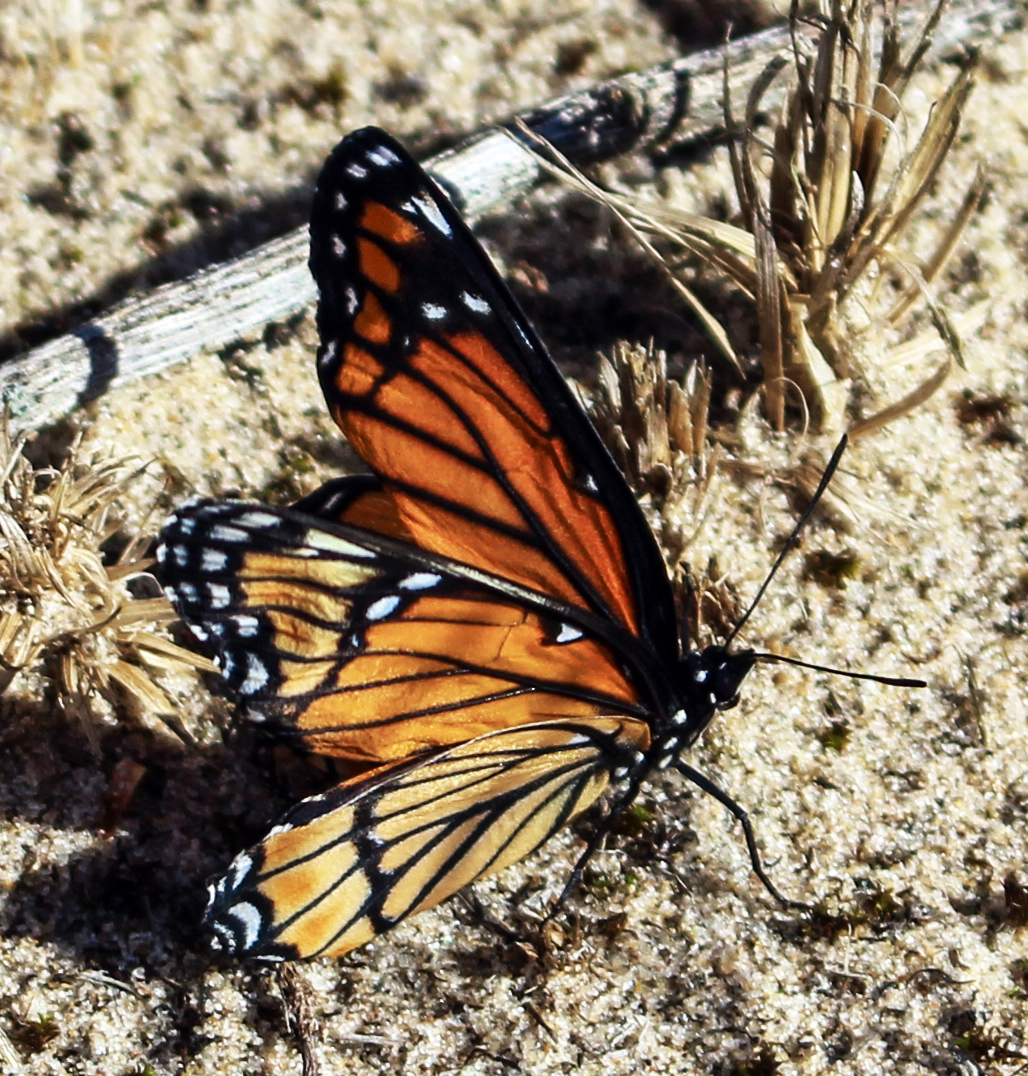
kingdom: Animalia
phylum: Arthropoda
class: Insecta
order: Lepidoptera
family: Nymphalidae
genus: Limenitis
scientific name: Limenitis archippus
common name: Viceroy
